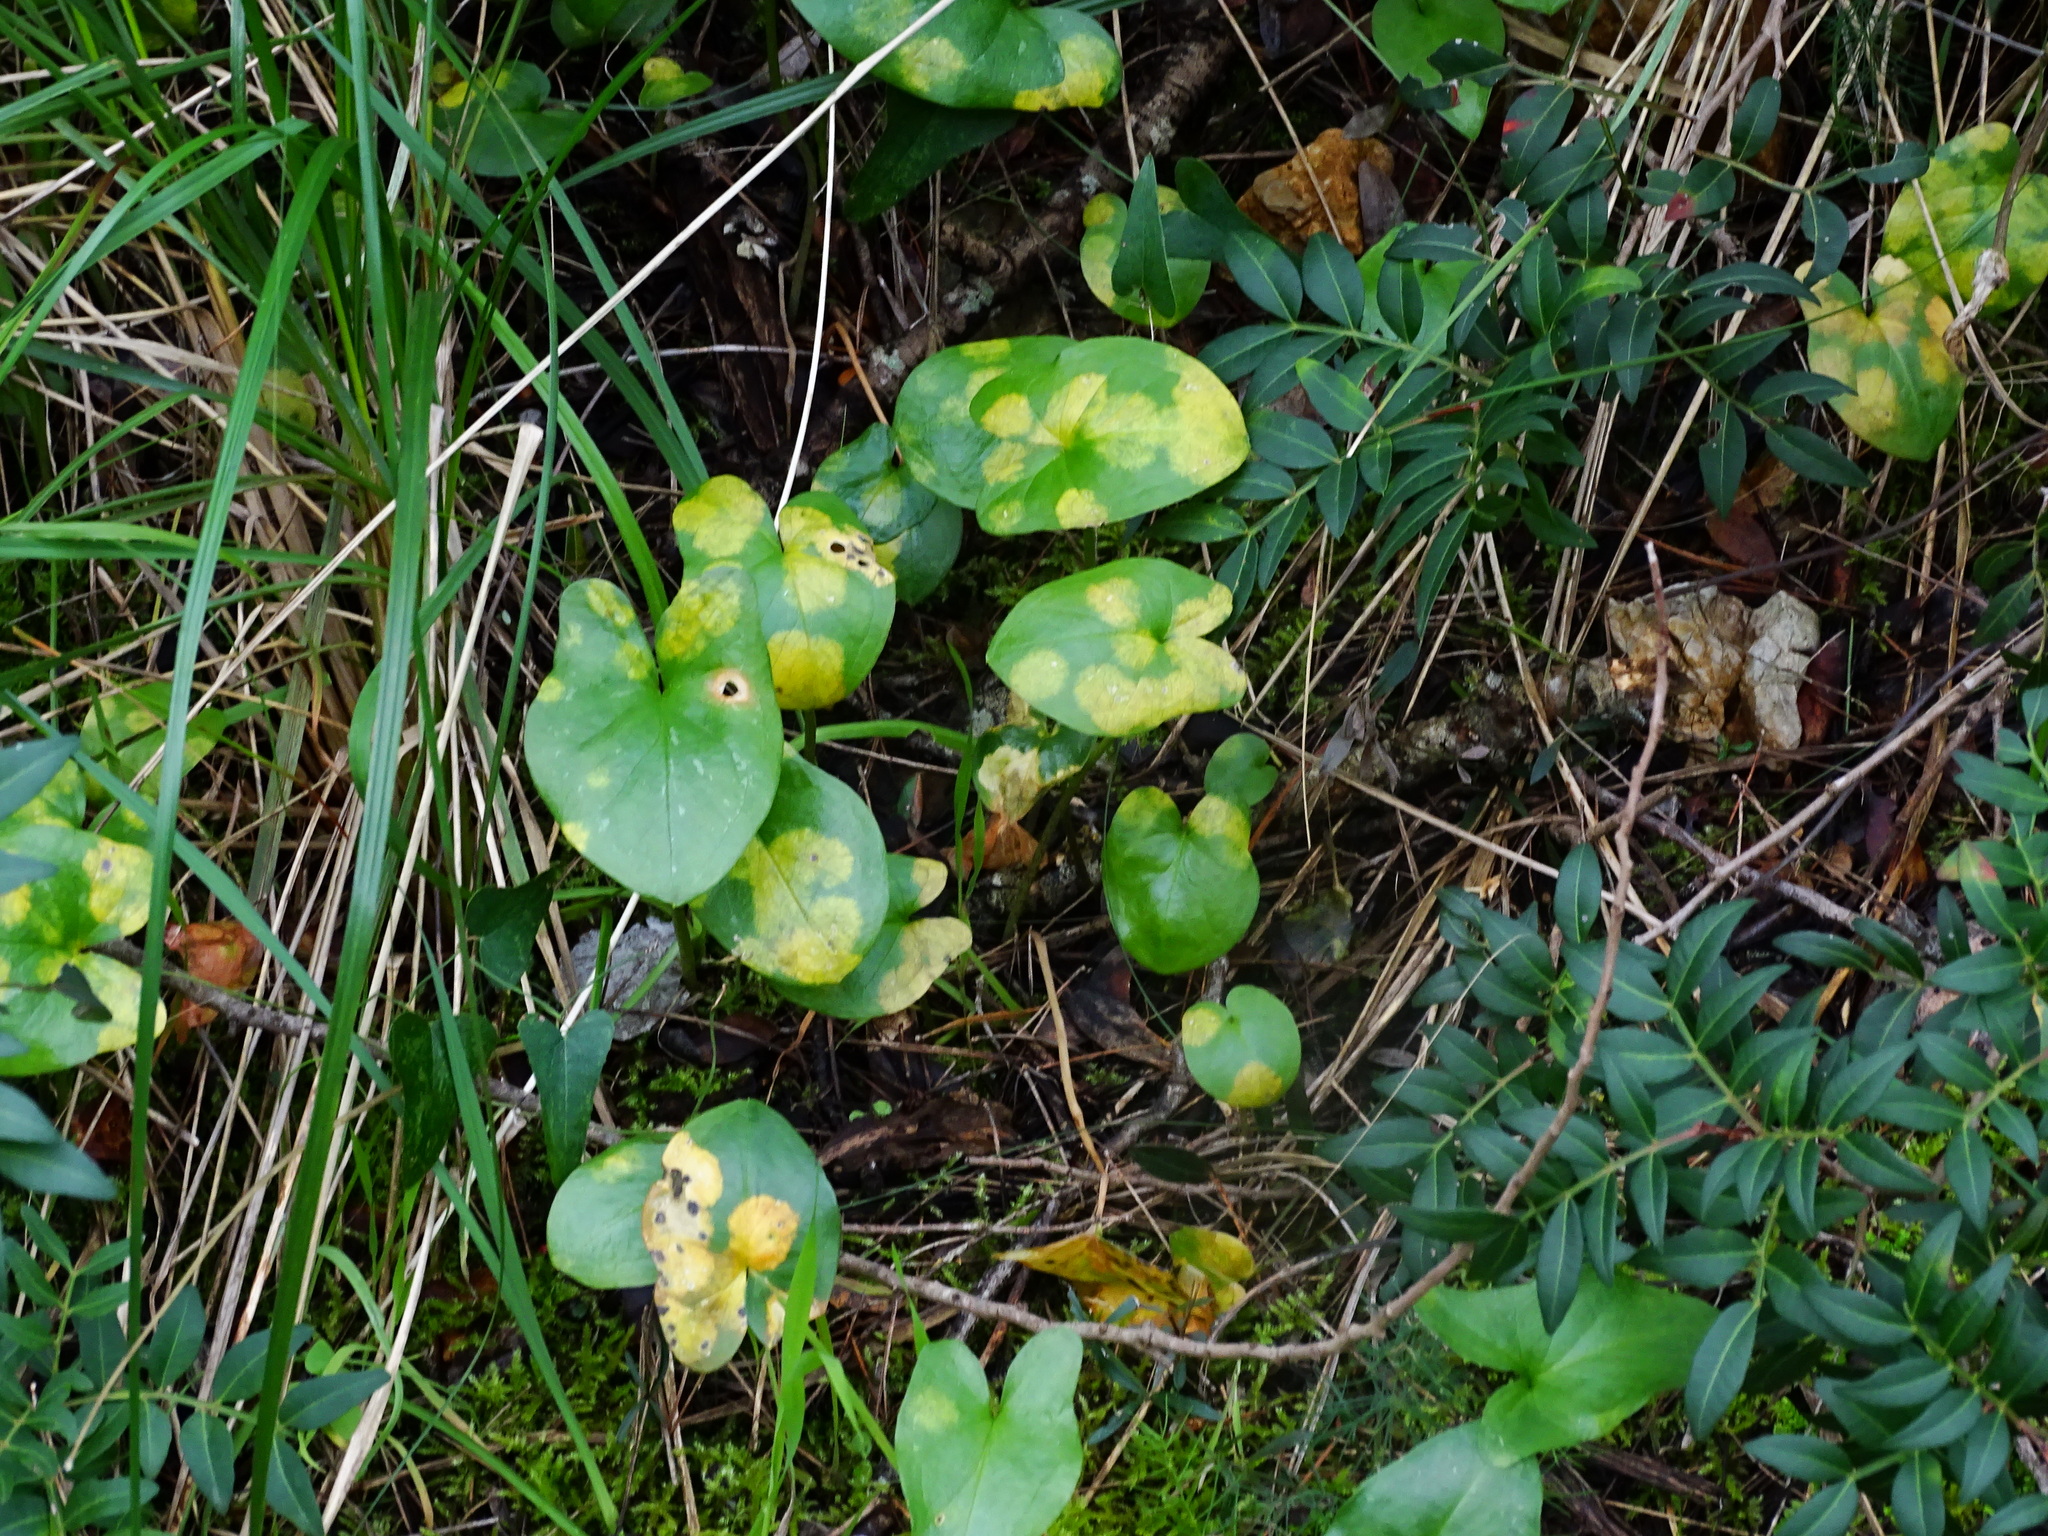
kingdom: Chromista
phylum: Ochrophyta
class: Xanthophyceae
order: Phyllosiphonales
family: Phyllosiphonaceae
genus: Phyllosiphon
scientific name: Phyllosiphon arisari
